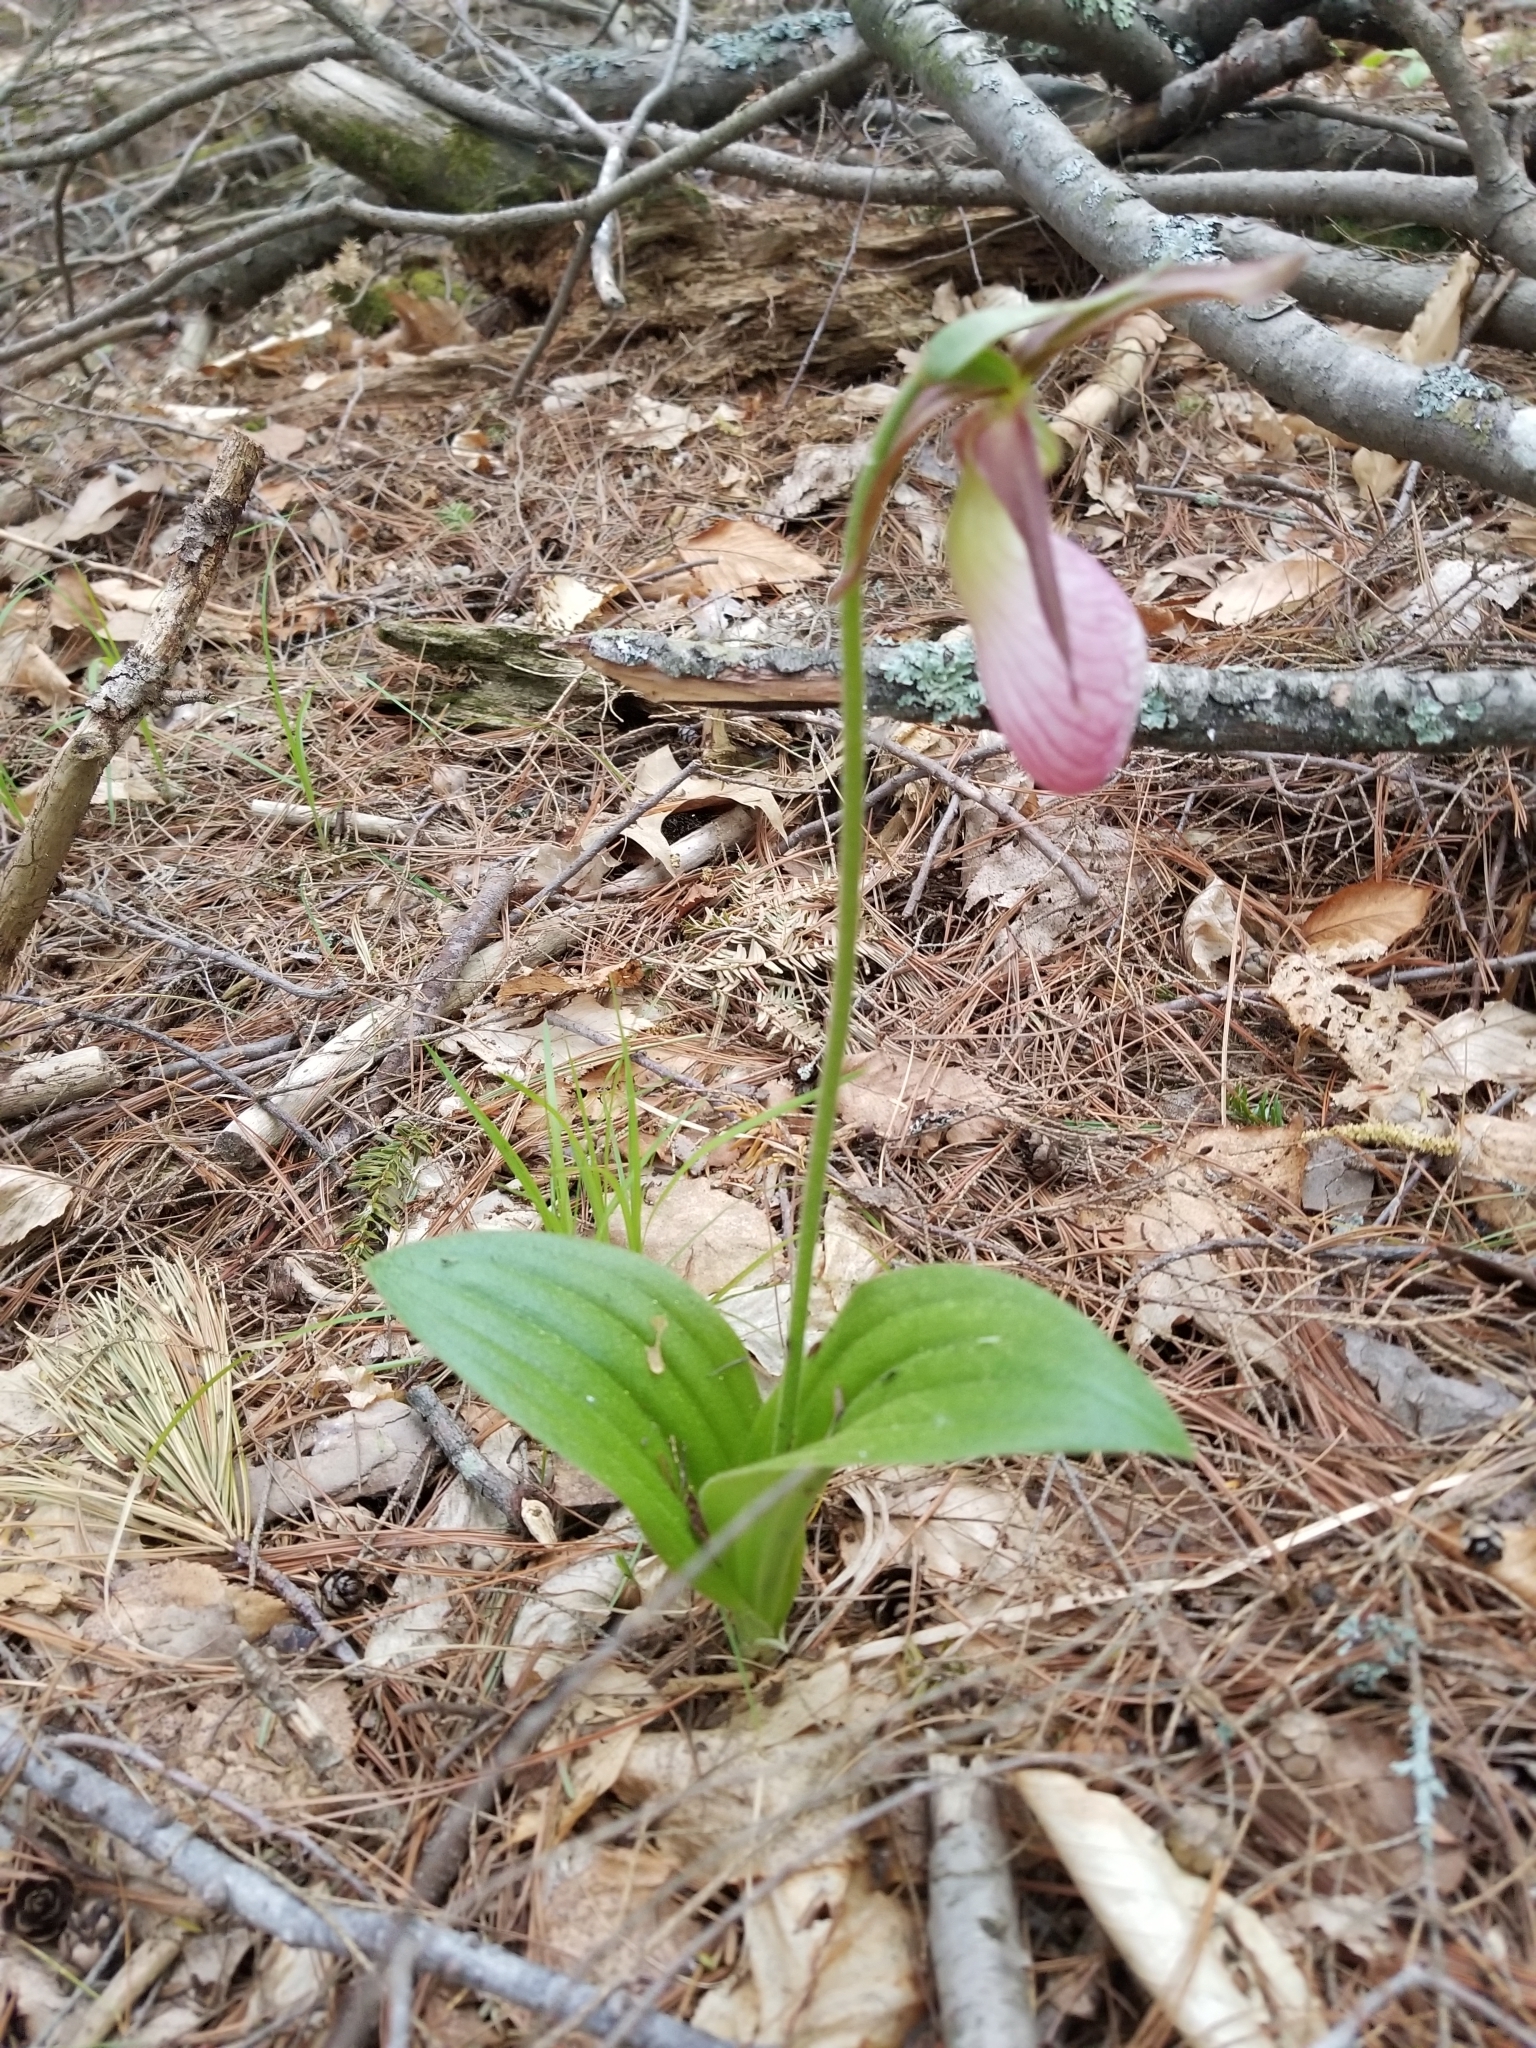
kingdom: Plantae
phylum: Tracheophyta
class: Liliopsida
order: Asparagales
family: Orchidaceae
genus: Cypripedium
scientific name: Cypripedium acaule
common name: Pink lady's-slipper
